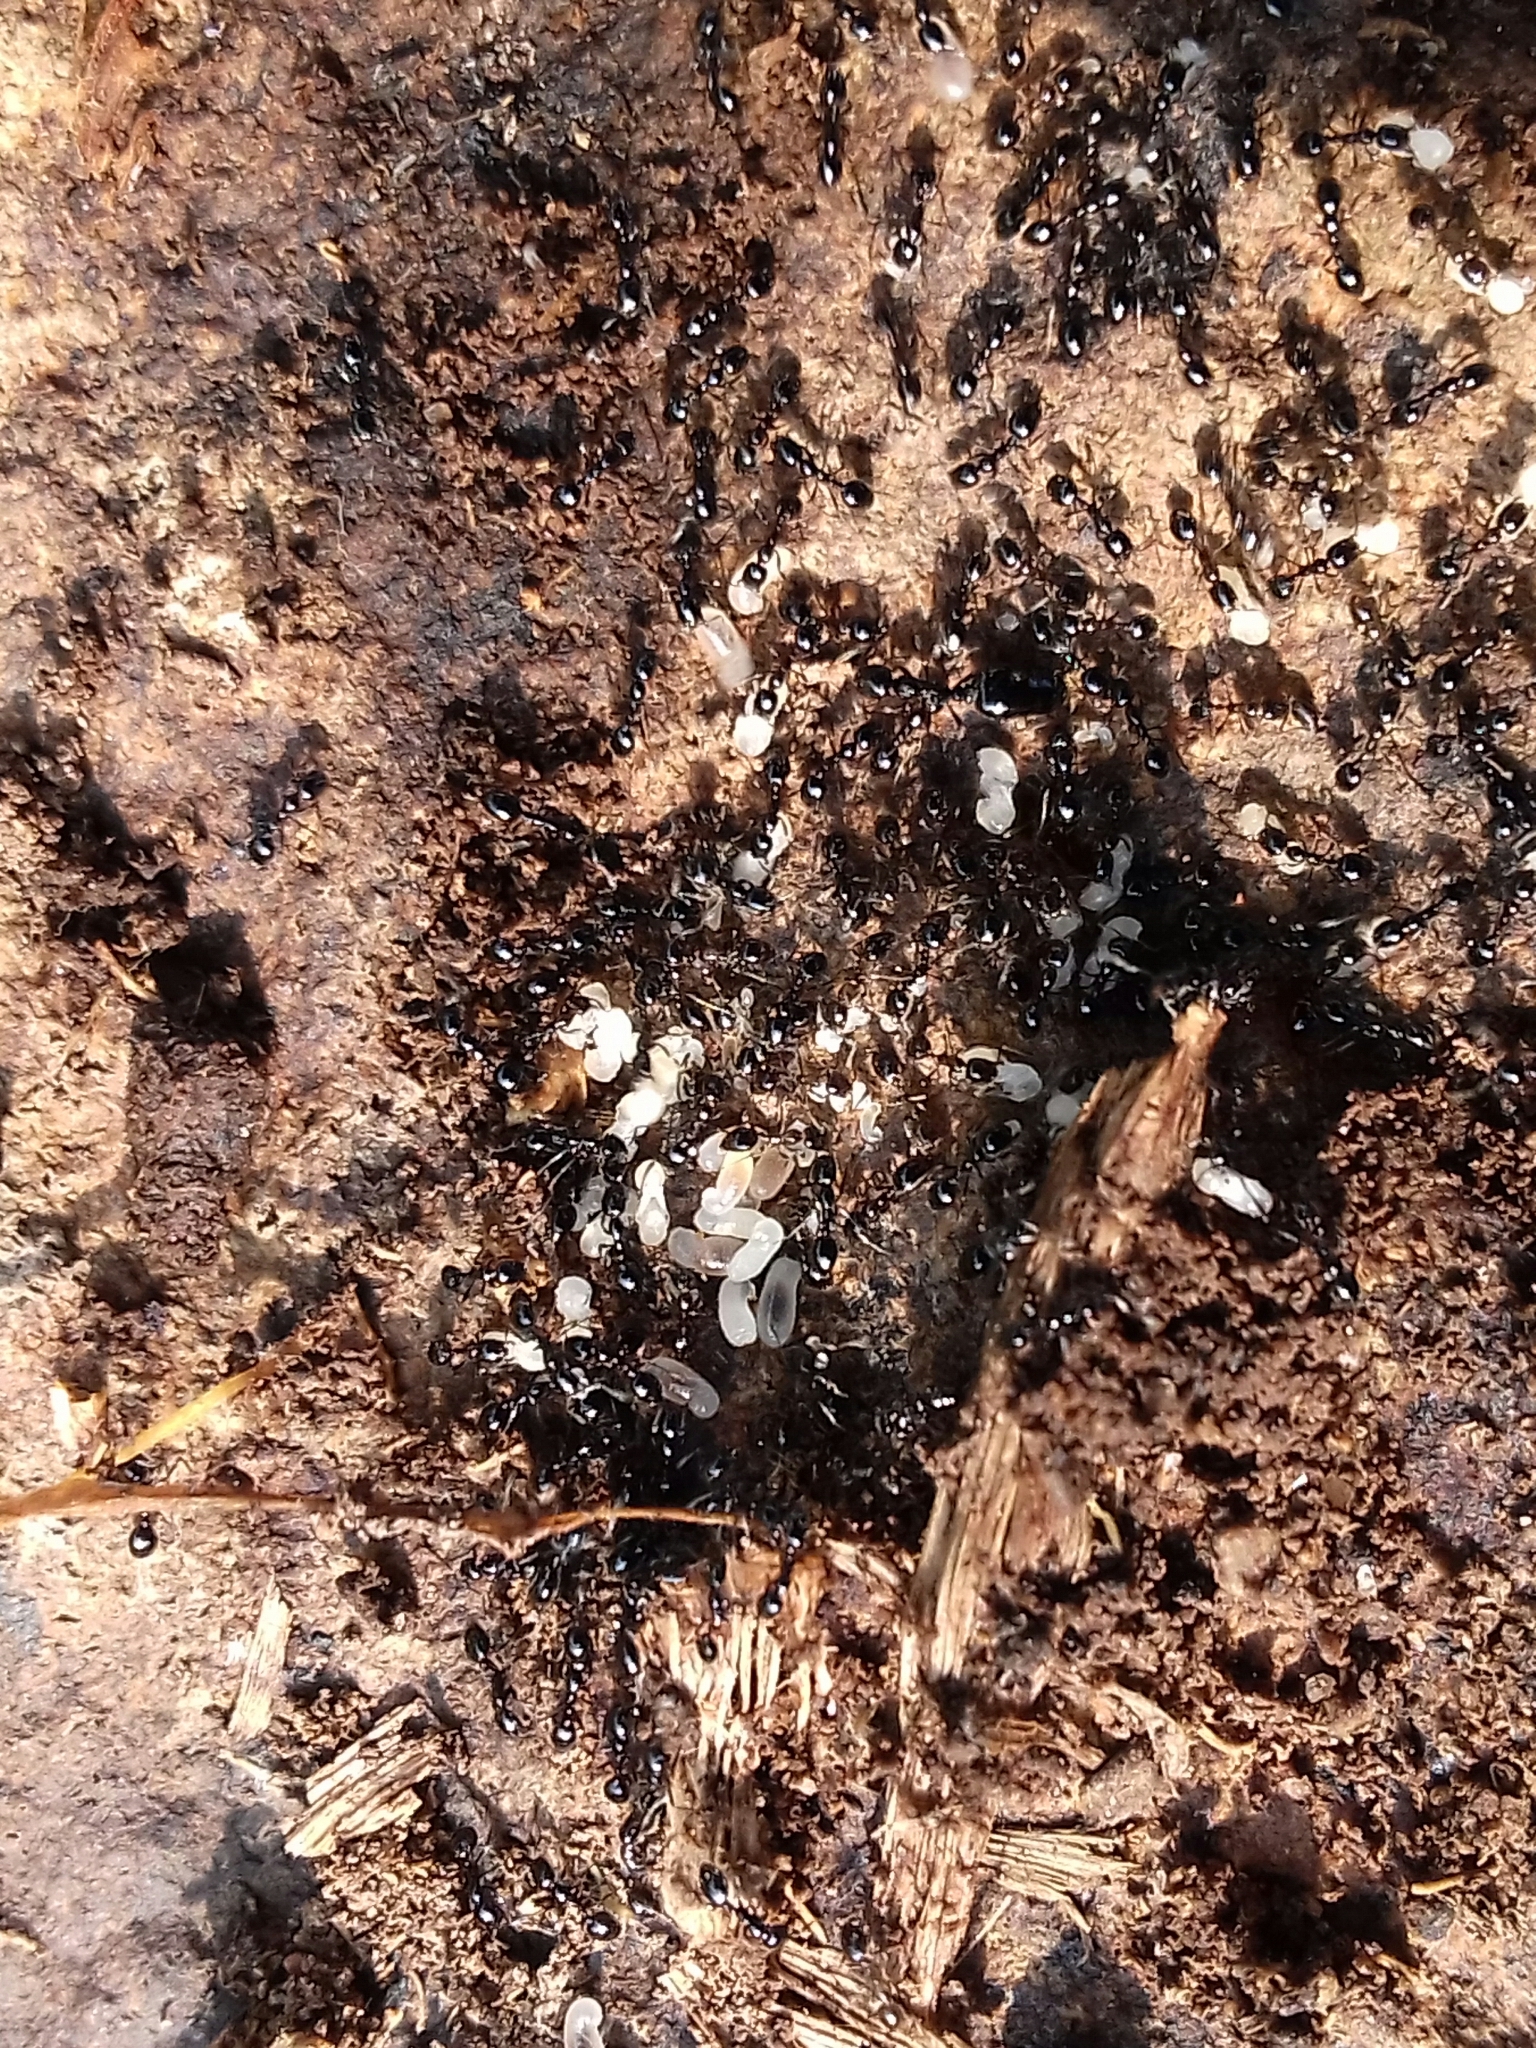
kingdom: Animalia
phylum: Arthropoda
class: Insecta
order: Hymenoptera
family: Formicidae
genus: Monomorium
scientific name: Monomorium minimum
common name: Little black ant
